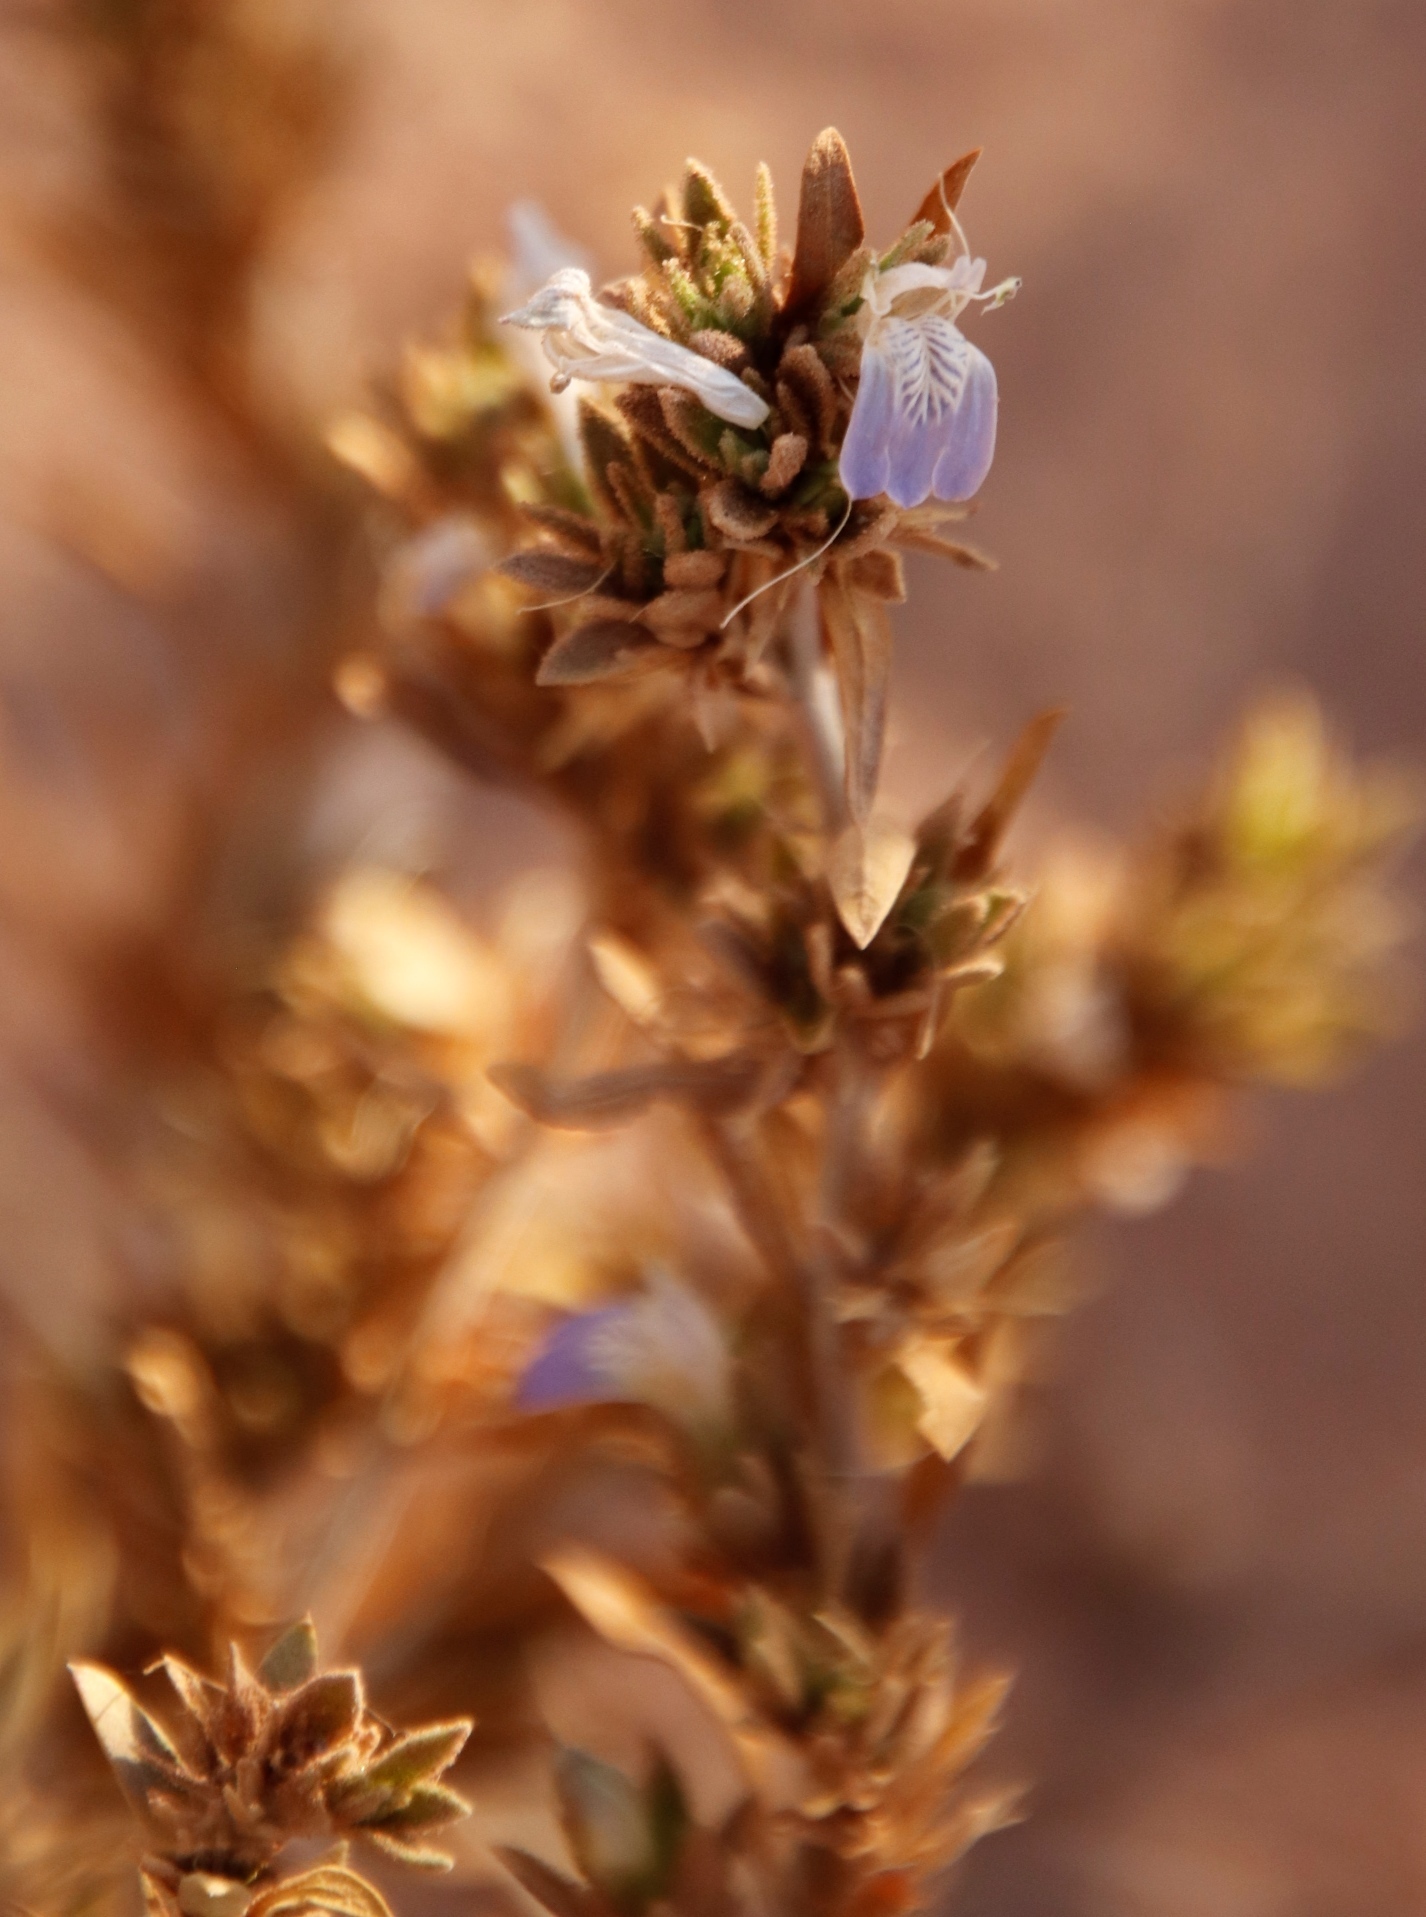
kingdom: Plantae
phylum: Tracheophyta
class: Magnoliopsida
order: Lamiales
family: Acanthaceae
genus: Pogonospermum
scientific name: Pogonospermum
